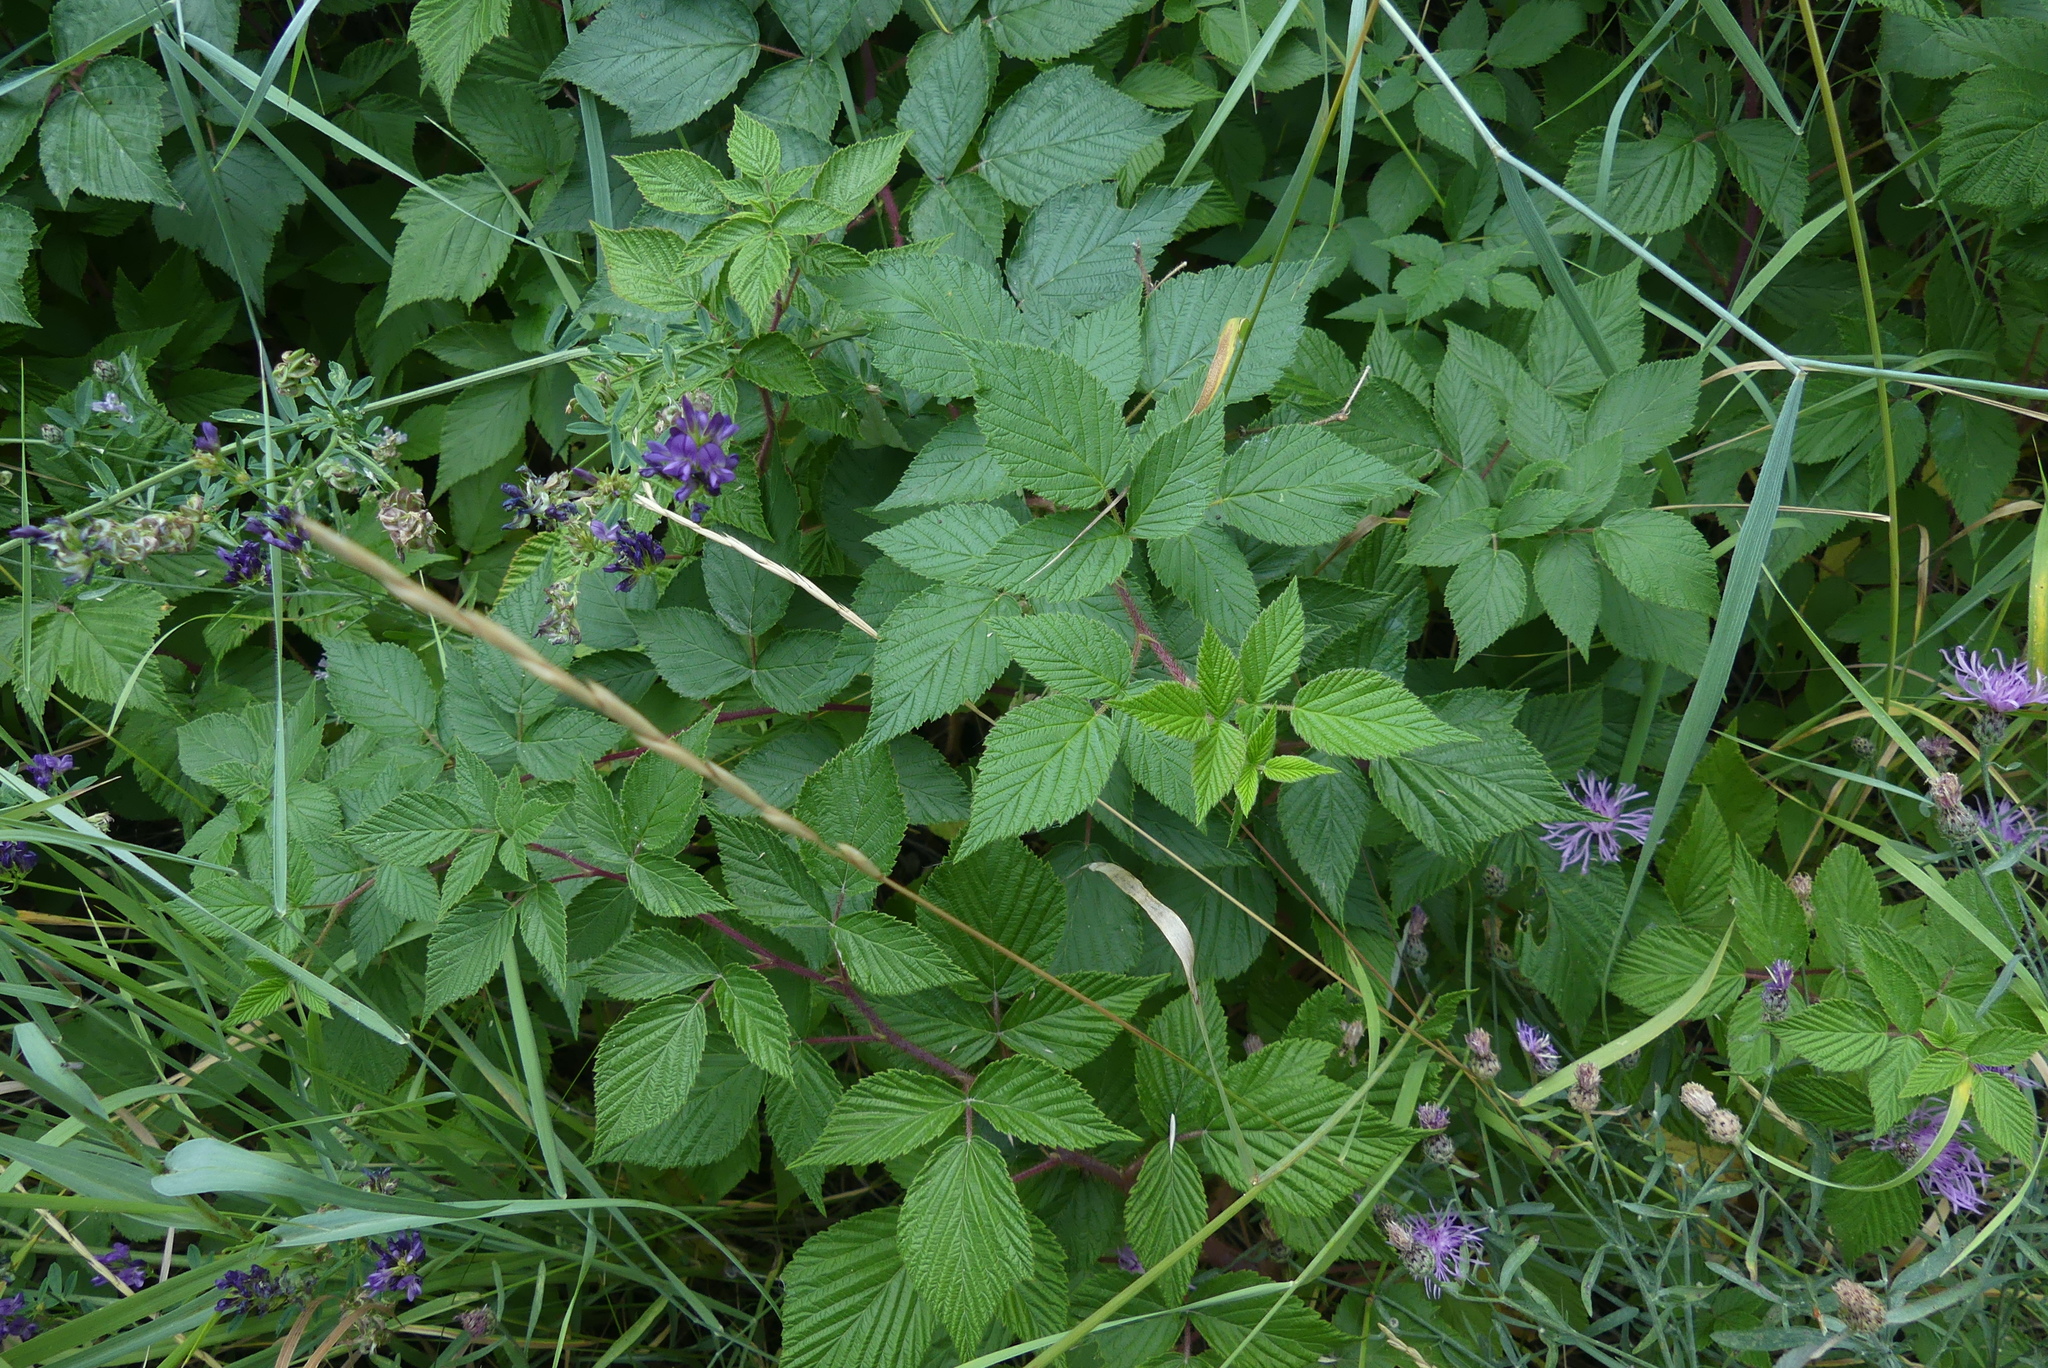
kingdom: Plantae
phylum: Tracheophyta
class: Magnoliopsida
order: Rosales
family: Rosaceae
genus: Rubus
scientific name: Rubus idaeus
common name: Raspberry
